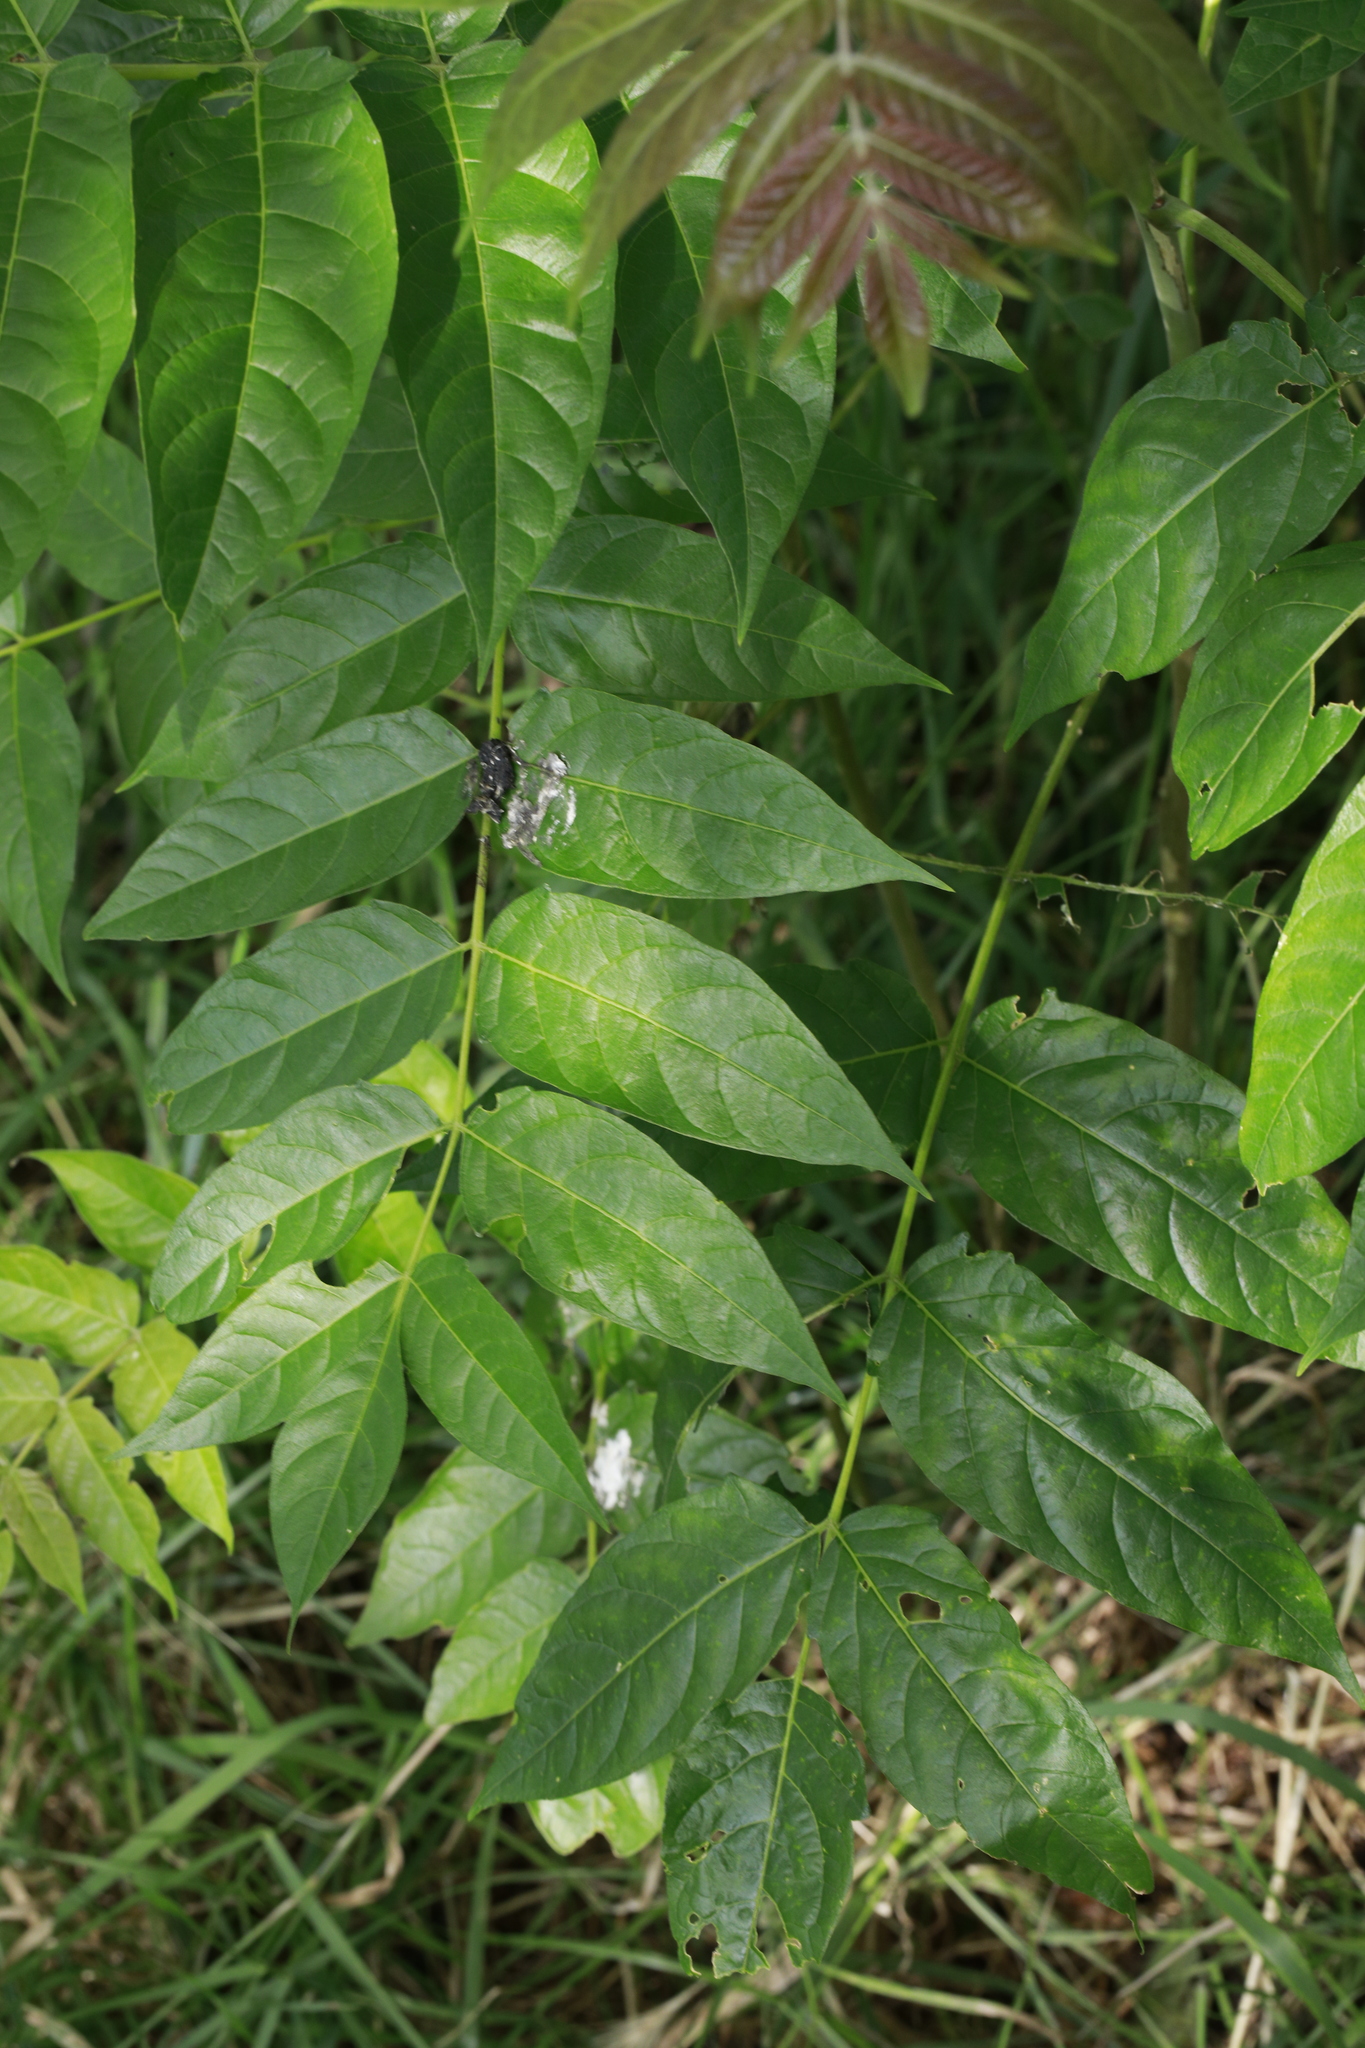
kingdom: Plantae
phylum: Tracheophyta
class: Magnoliopsida
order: Lamiales
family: Oleaceae
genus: Fraxinus
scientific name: Fraxinus excelsior
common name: European ash
